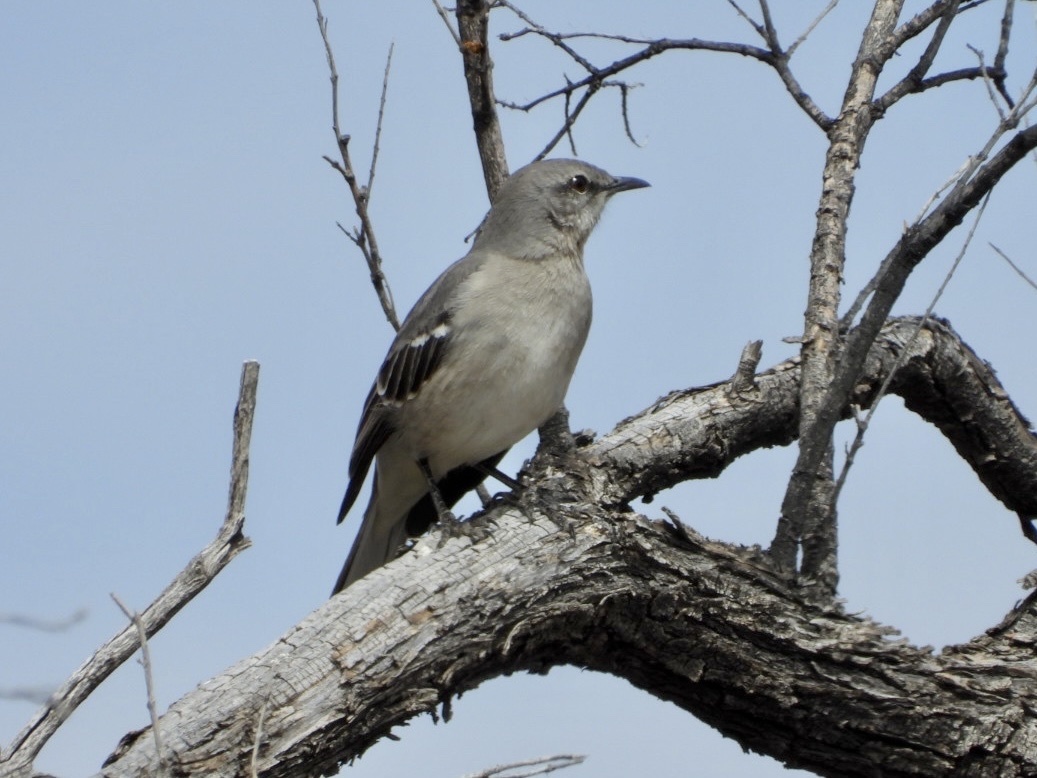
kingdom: Animalia
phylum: Chordata
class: Aves
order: Passeriformes
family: Mimidae
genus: Mimus
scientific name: Mimus polyglottos
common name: Northern mockingbird
